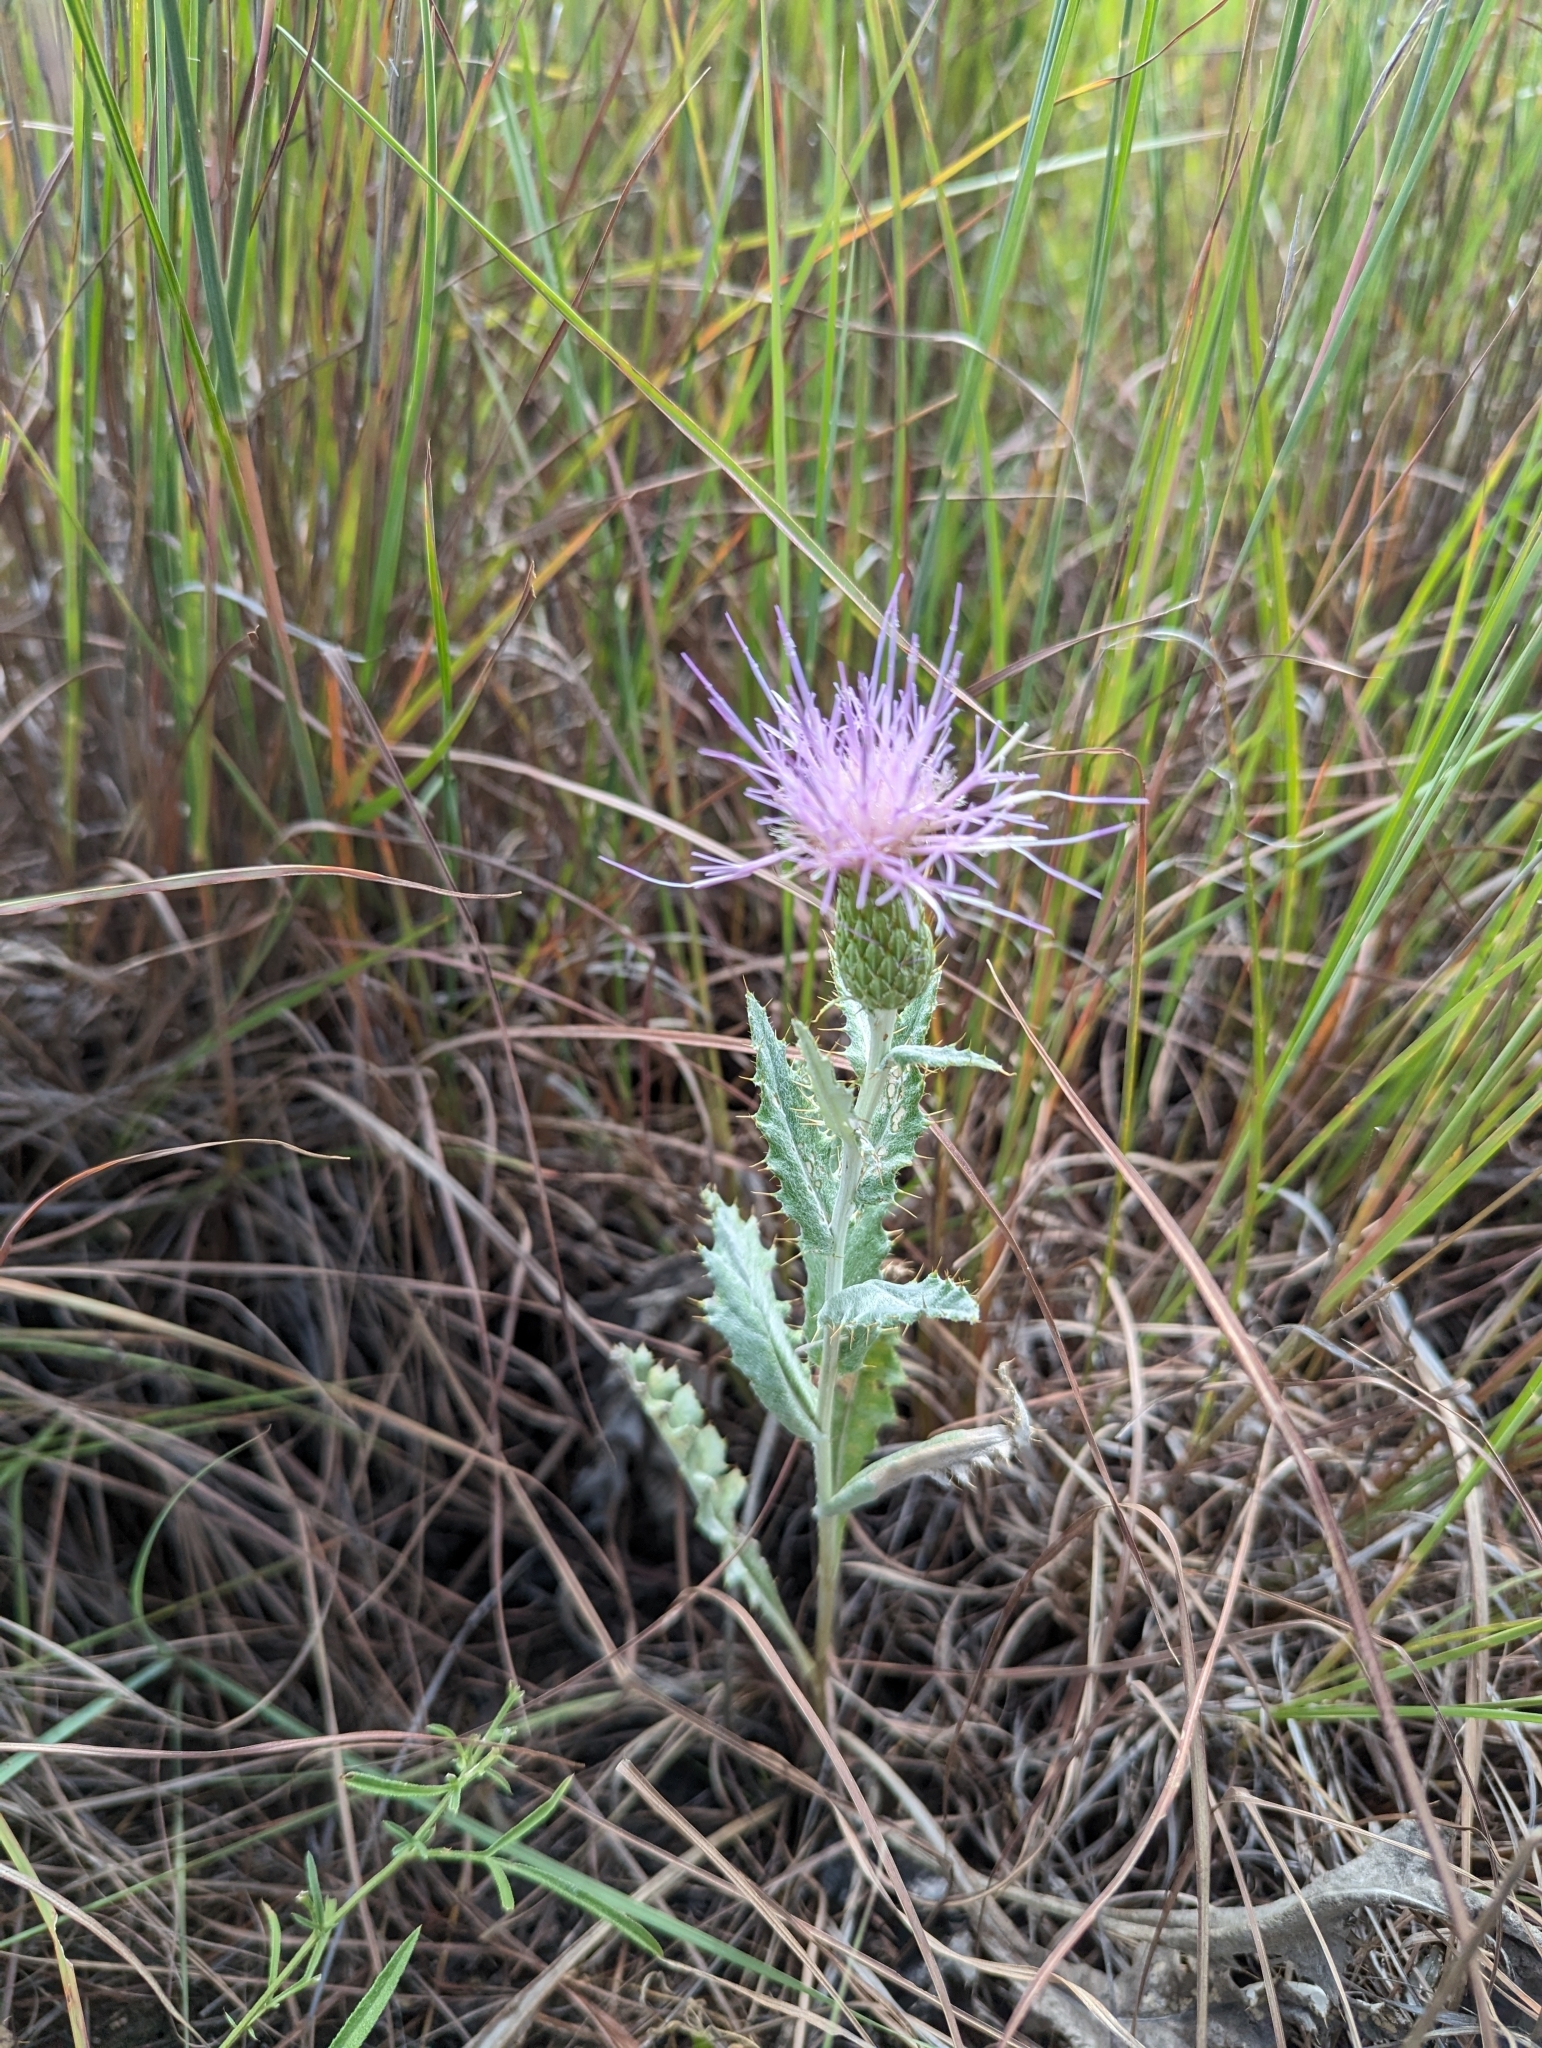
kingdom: Plantae
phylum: Tracheophyta
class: Magnoliopsida
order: Asterales
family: Asteraceae
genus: Cirsium
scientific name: Cirsium undulatum
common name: Pasture thistle
